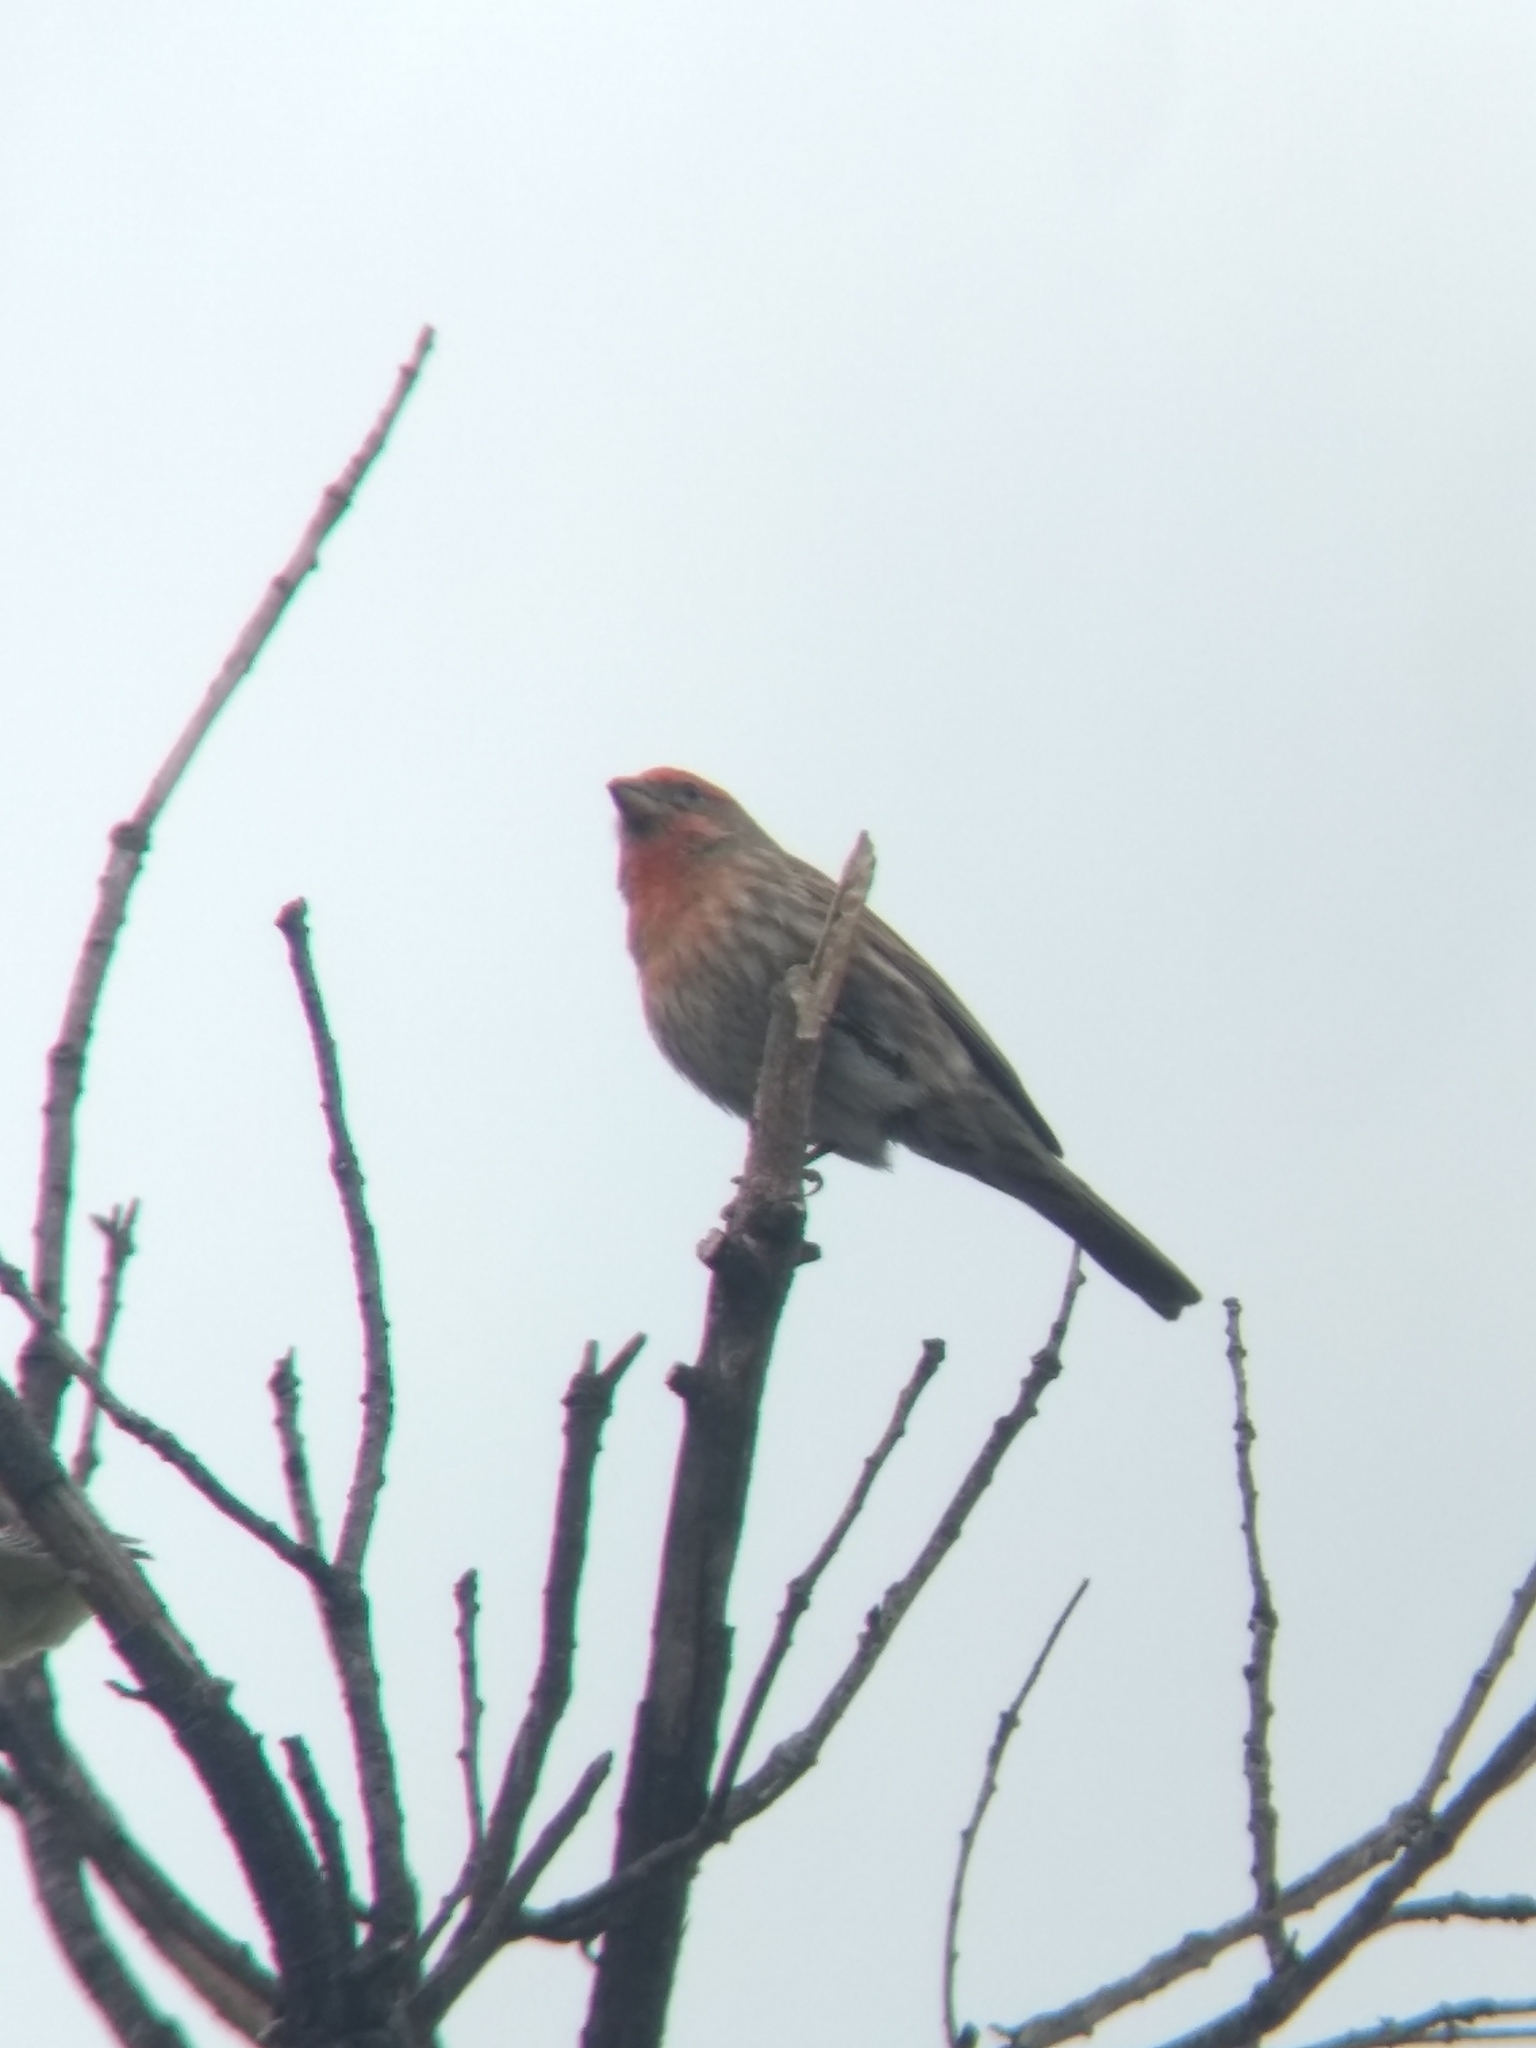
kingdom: Animalia
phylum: Chordata
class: Aves
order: Passeriformes
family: Fringillidae
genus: Haemorhous
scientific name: Haemorhous mexicanus
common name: House finch
